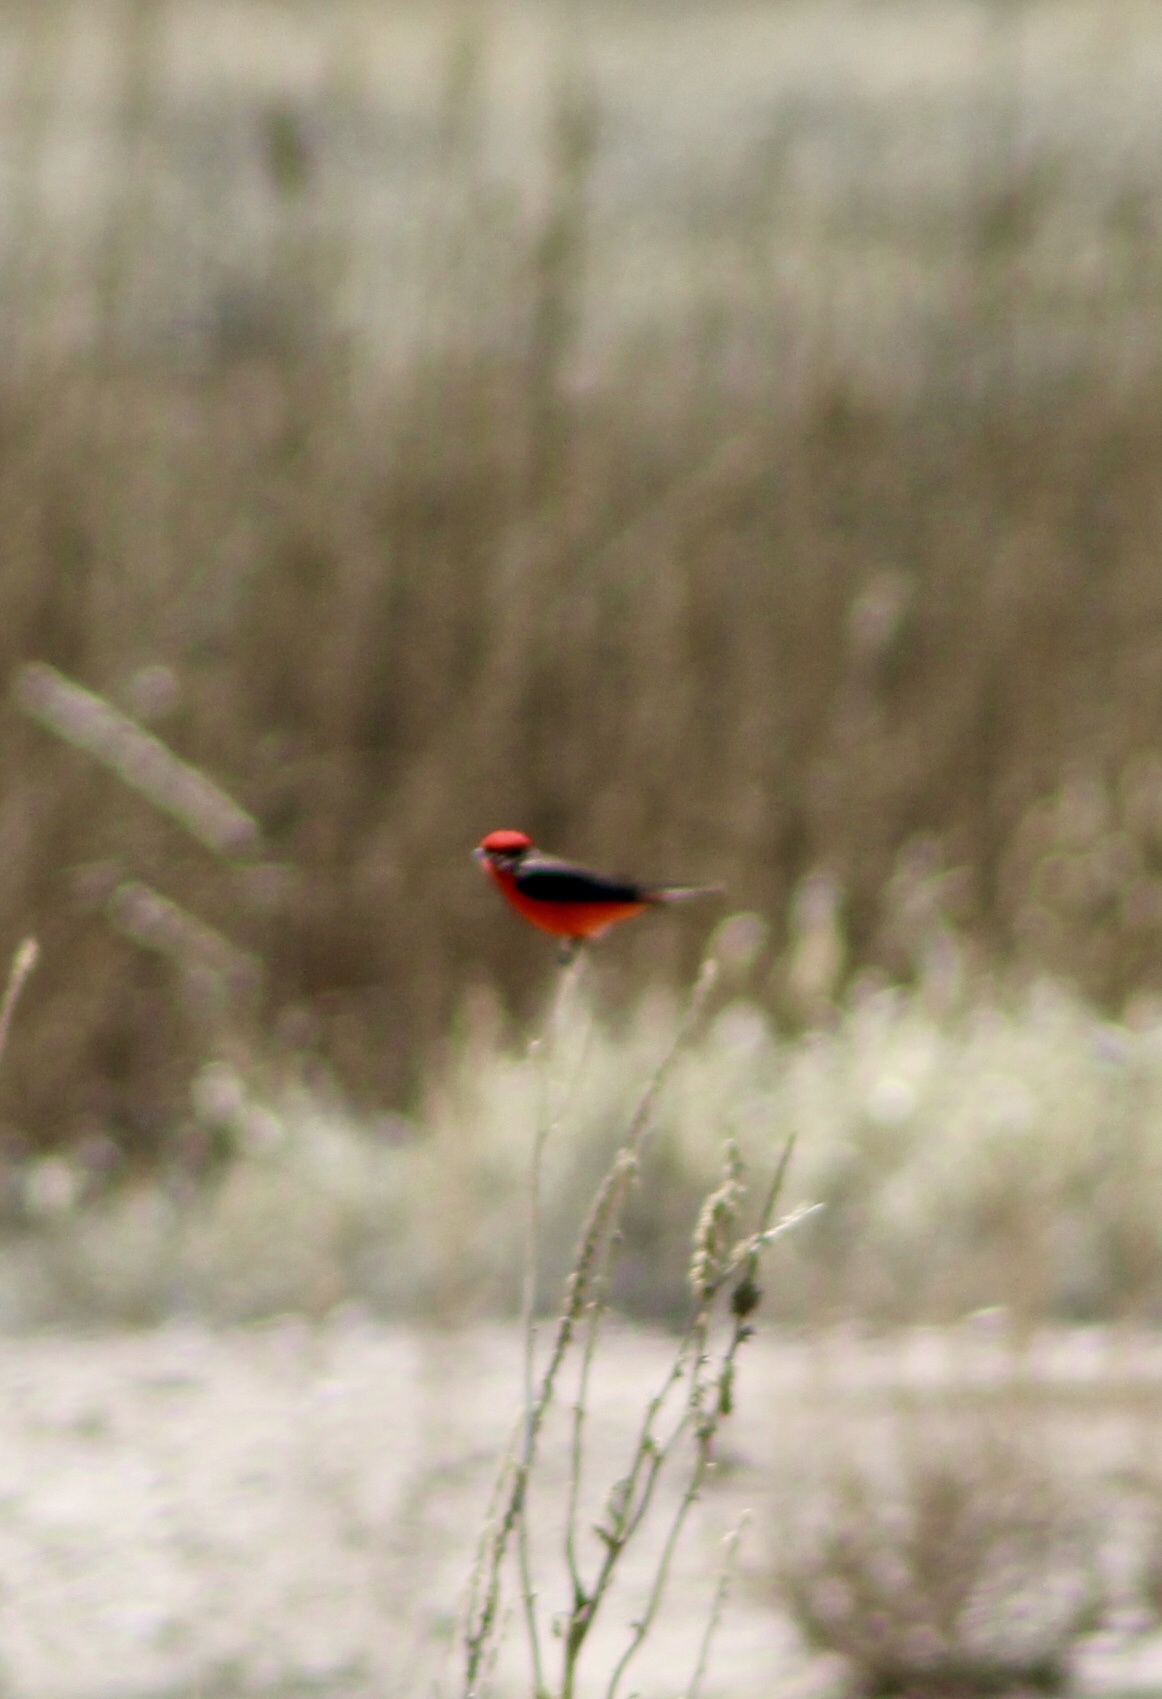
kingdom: Animalia
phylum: Chordata
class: Aves
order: Passeriformes
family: Tyrannidae
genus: Pyrocephalus
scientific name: Pyrocephalus rubinus
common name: Vermilion flycatcher
